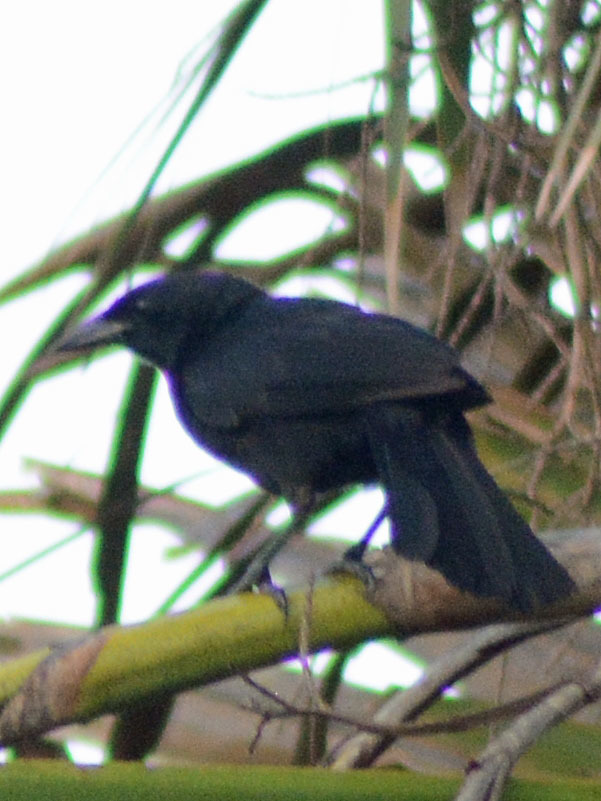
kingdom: Animalia
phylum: Chordata
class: Aves
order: Passeriformes
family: Icteridae
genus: Dives
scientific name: Dives dives
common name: Melodious blackbird
